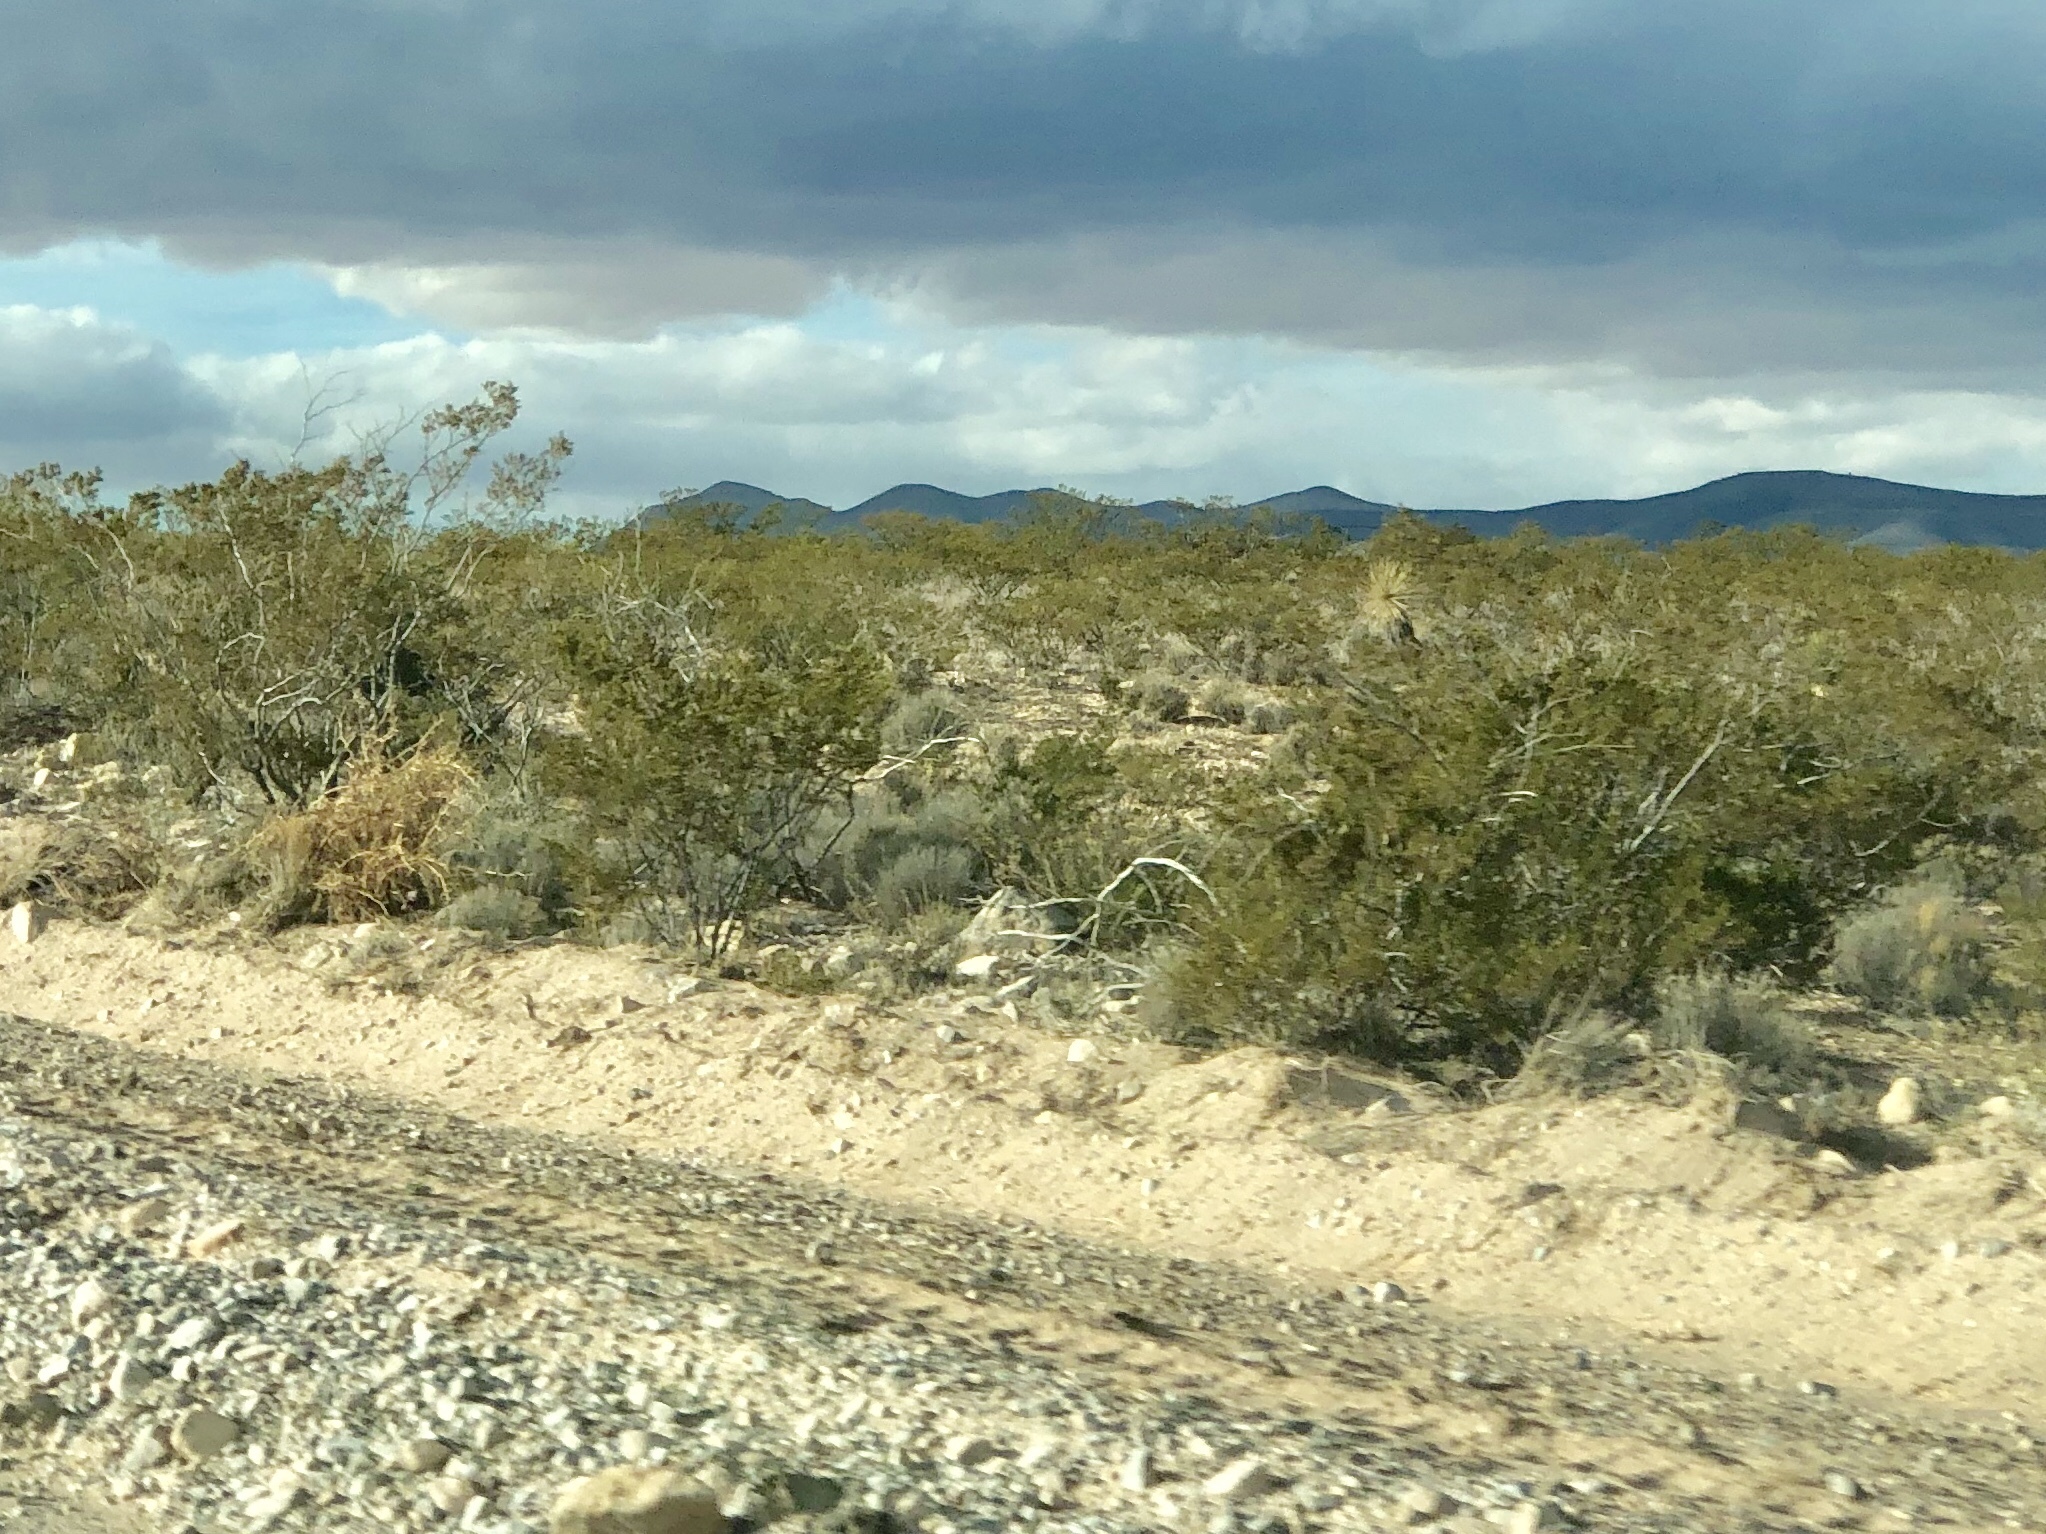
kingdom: Plantae
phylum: Tracheophyta
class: Magnoliopsida
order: Zygophyllales
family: Zygophyllaceae
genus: Larrea
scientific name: Larrea tridentata
